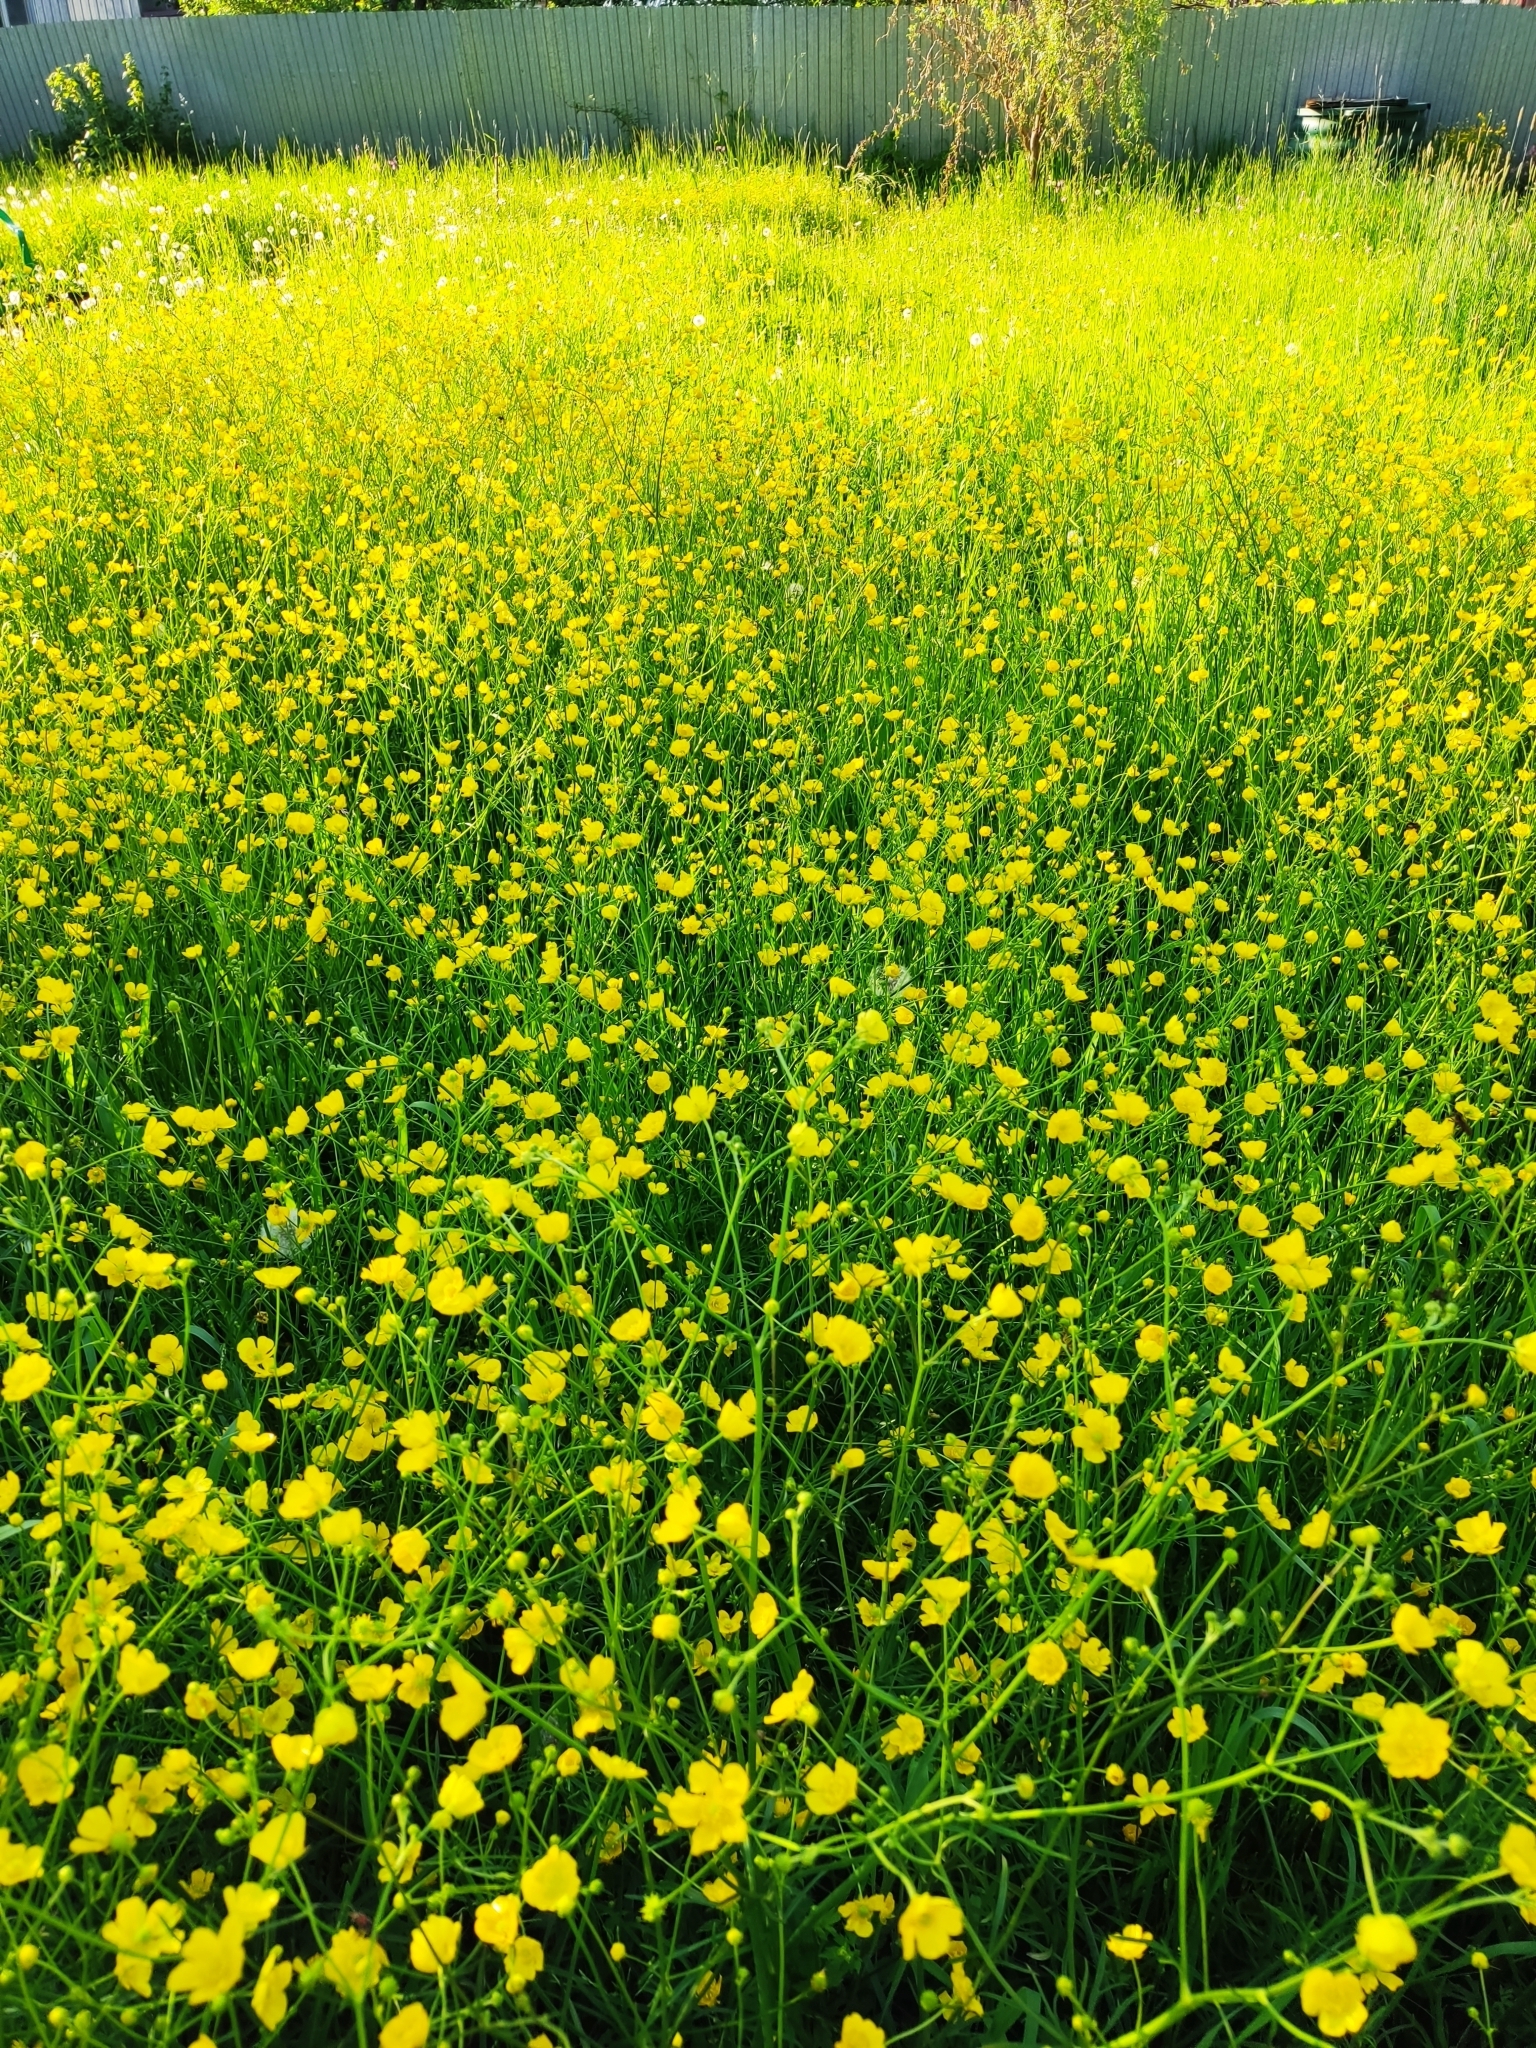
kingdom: Plantae
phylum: Tracheophyta
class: Magnoliopsida
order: Ranunculales
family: Ranunculaceae
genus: Ranunculus
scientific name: Ranunculus acris
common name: Meadow buttercup
